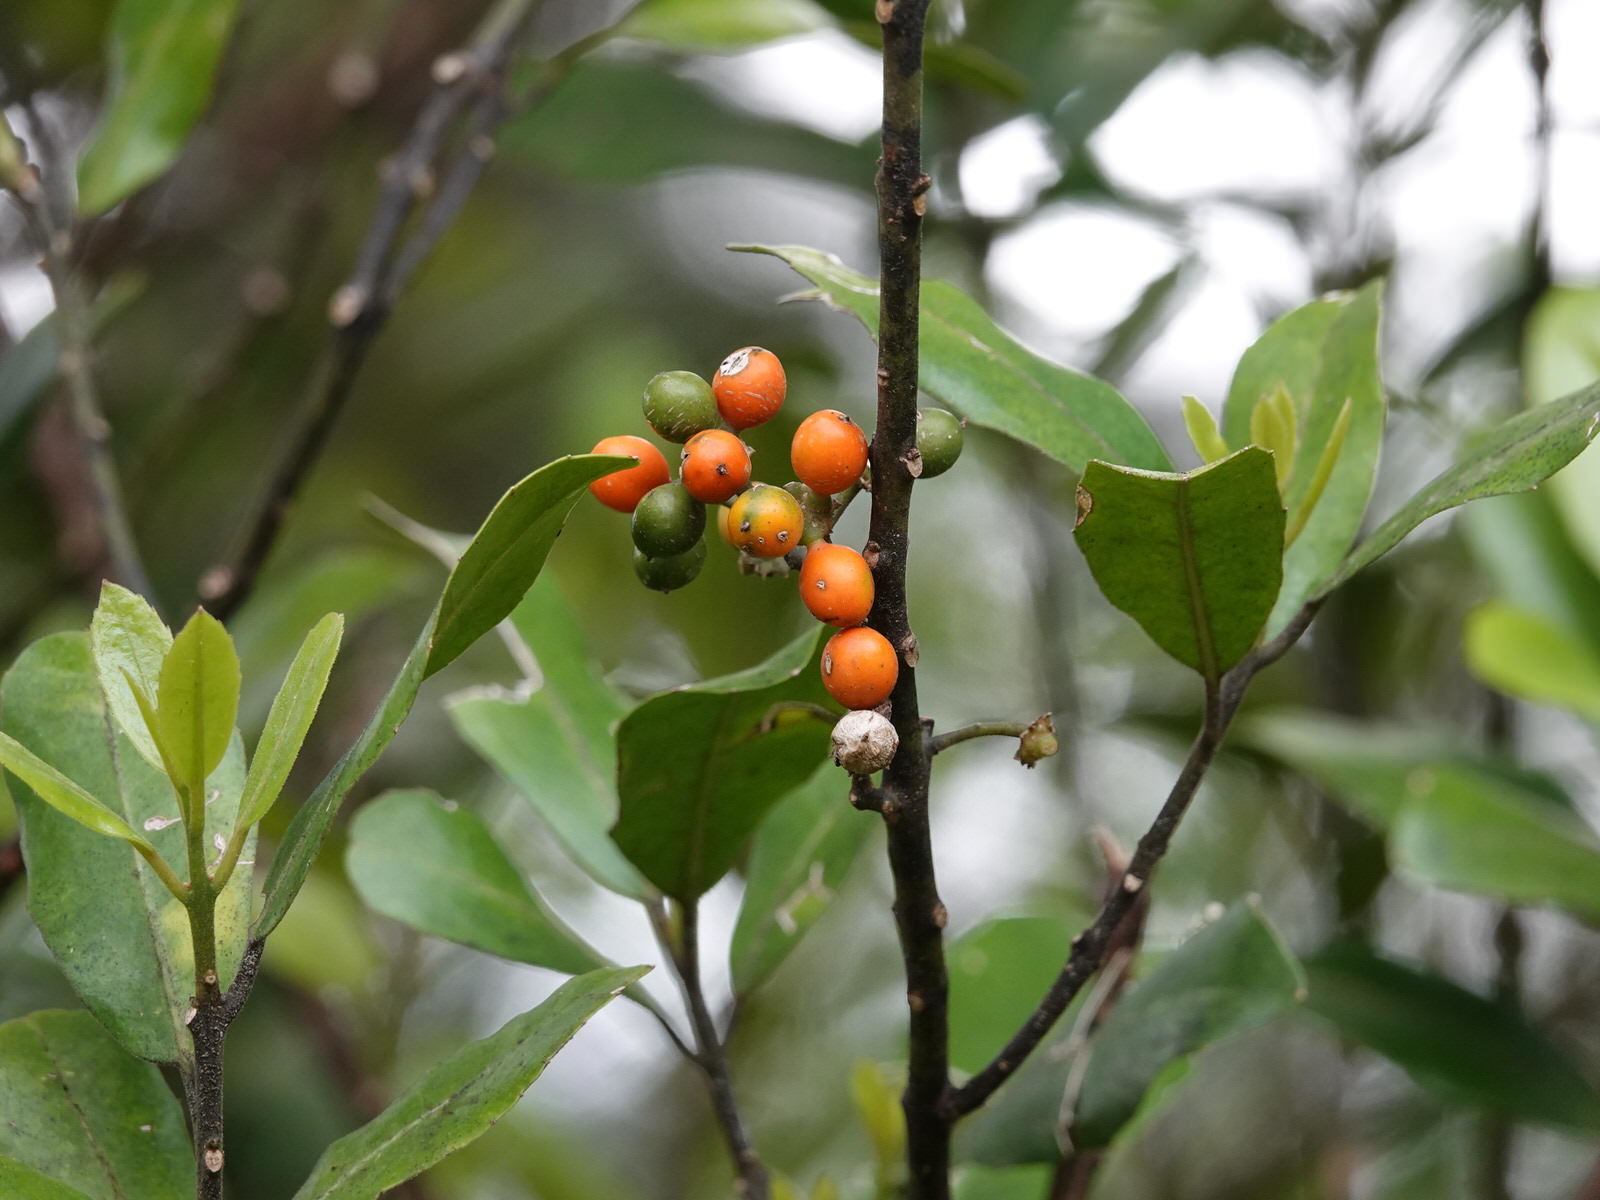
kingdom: Plantae
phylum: Tracheophyta
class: Magnoliopsida
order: Laurales
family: Monimiaceae
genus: Hedycarya
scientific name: Hedycarya arborea
